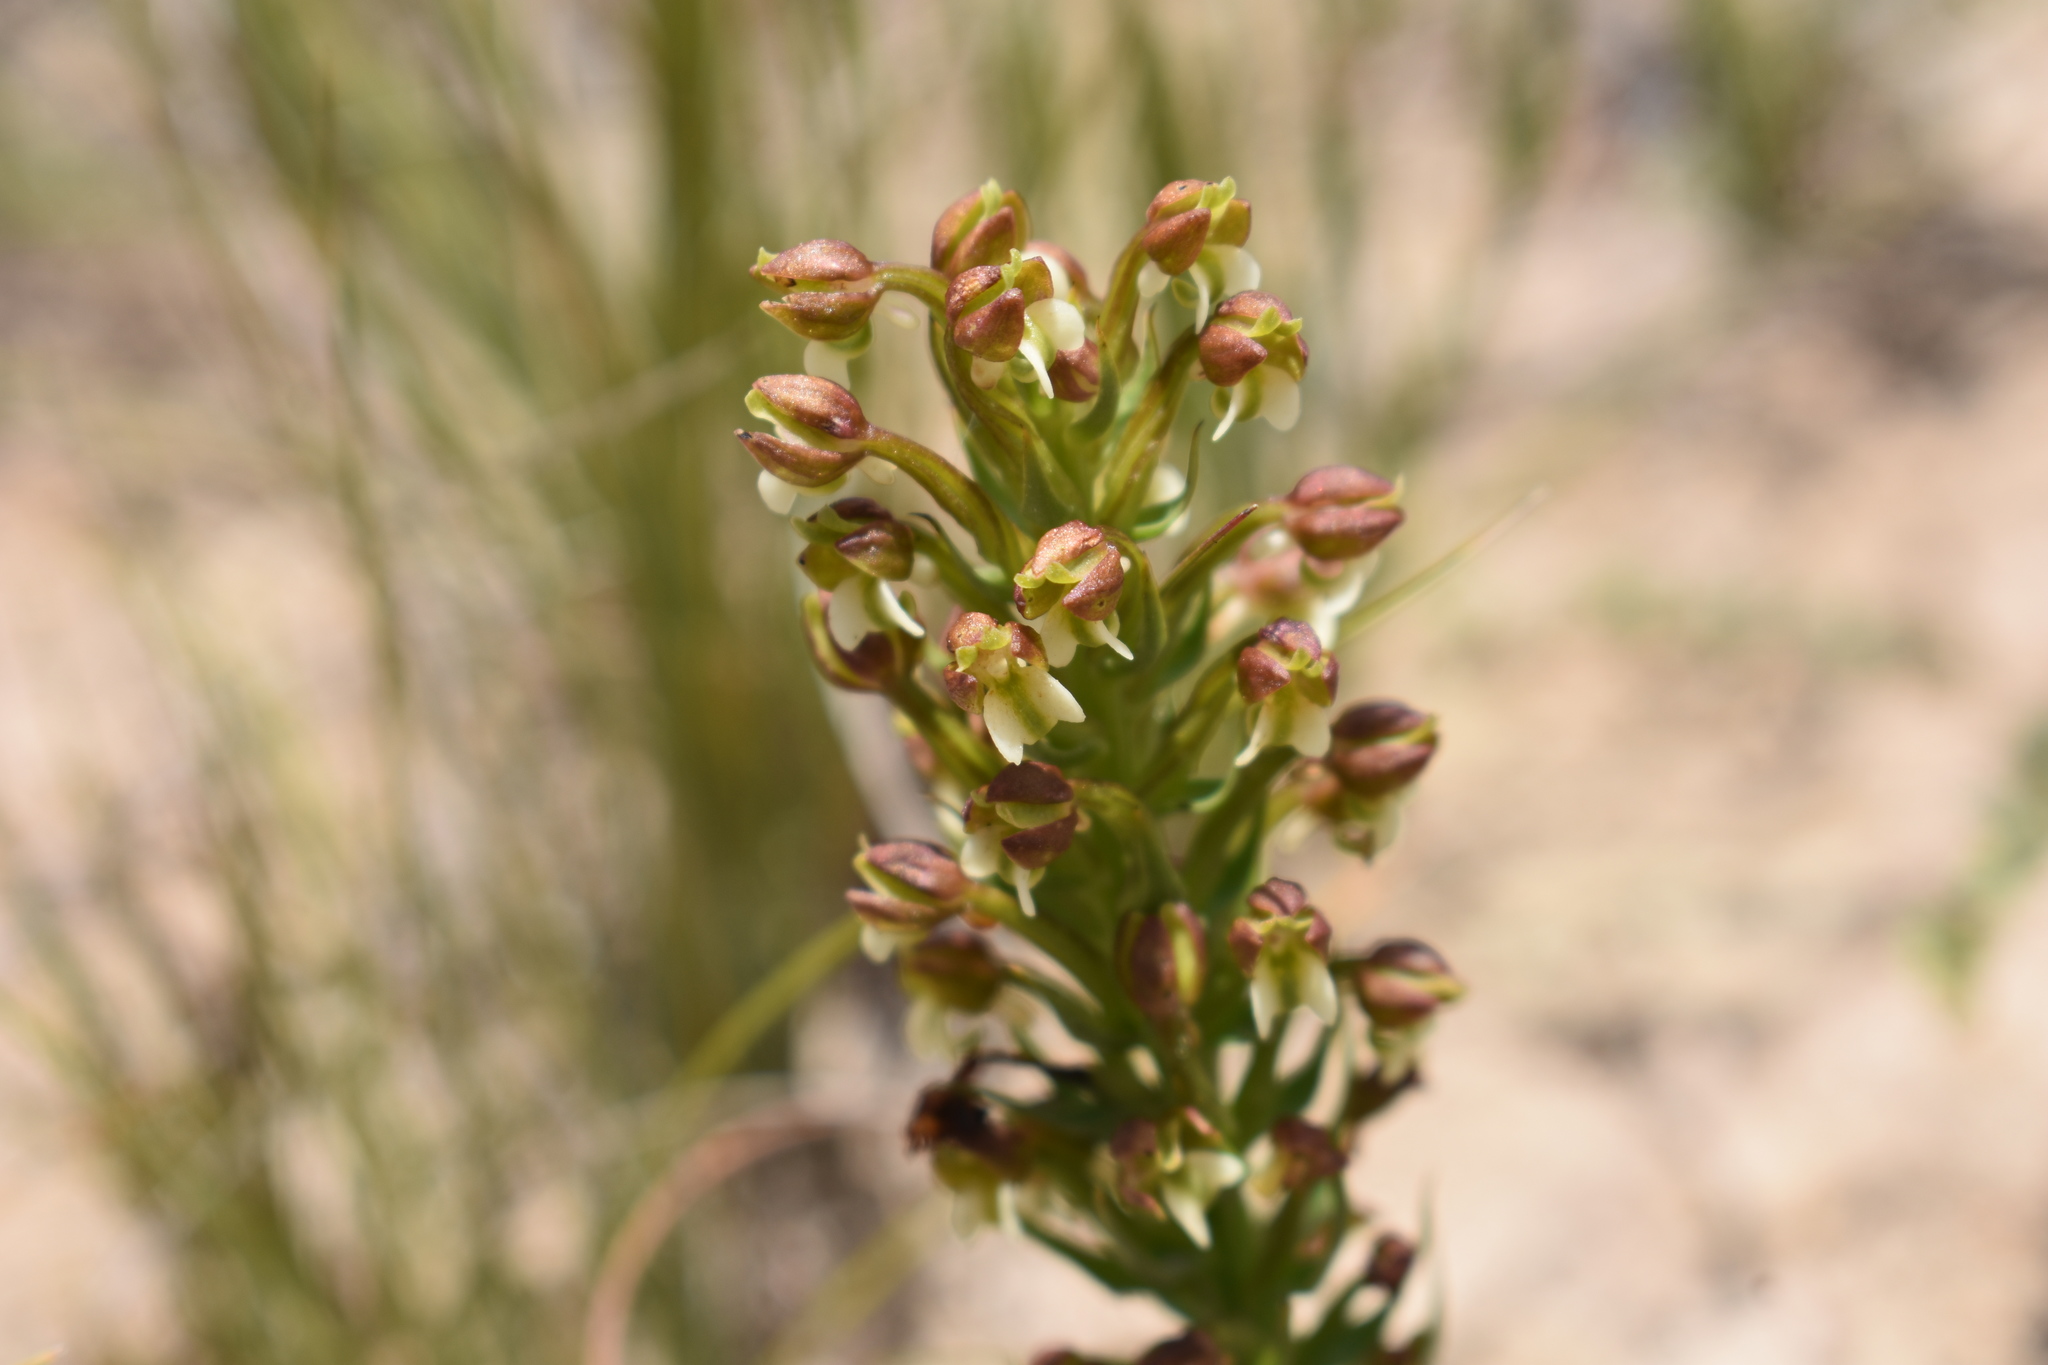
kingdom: Plantae
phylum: Tracheophyta
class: Liliopsida
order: Asparagales
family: Orchidaceae
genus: Brachycorythis
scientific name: Brachycorythis mac-owaniana
